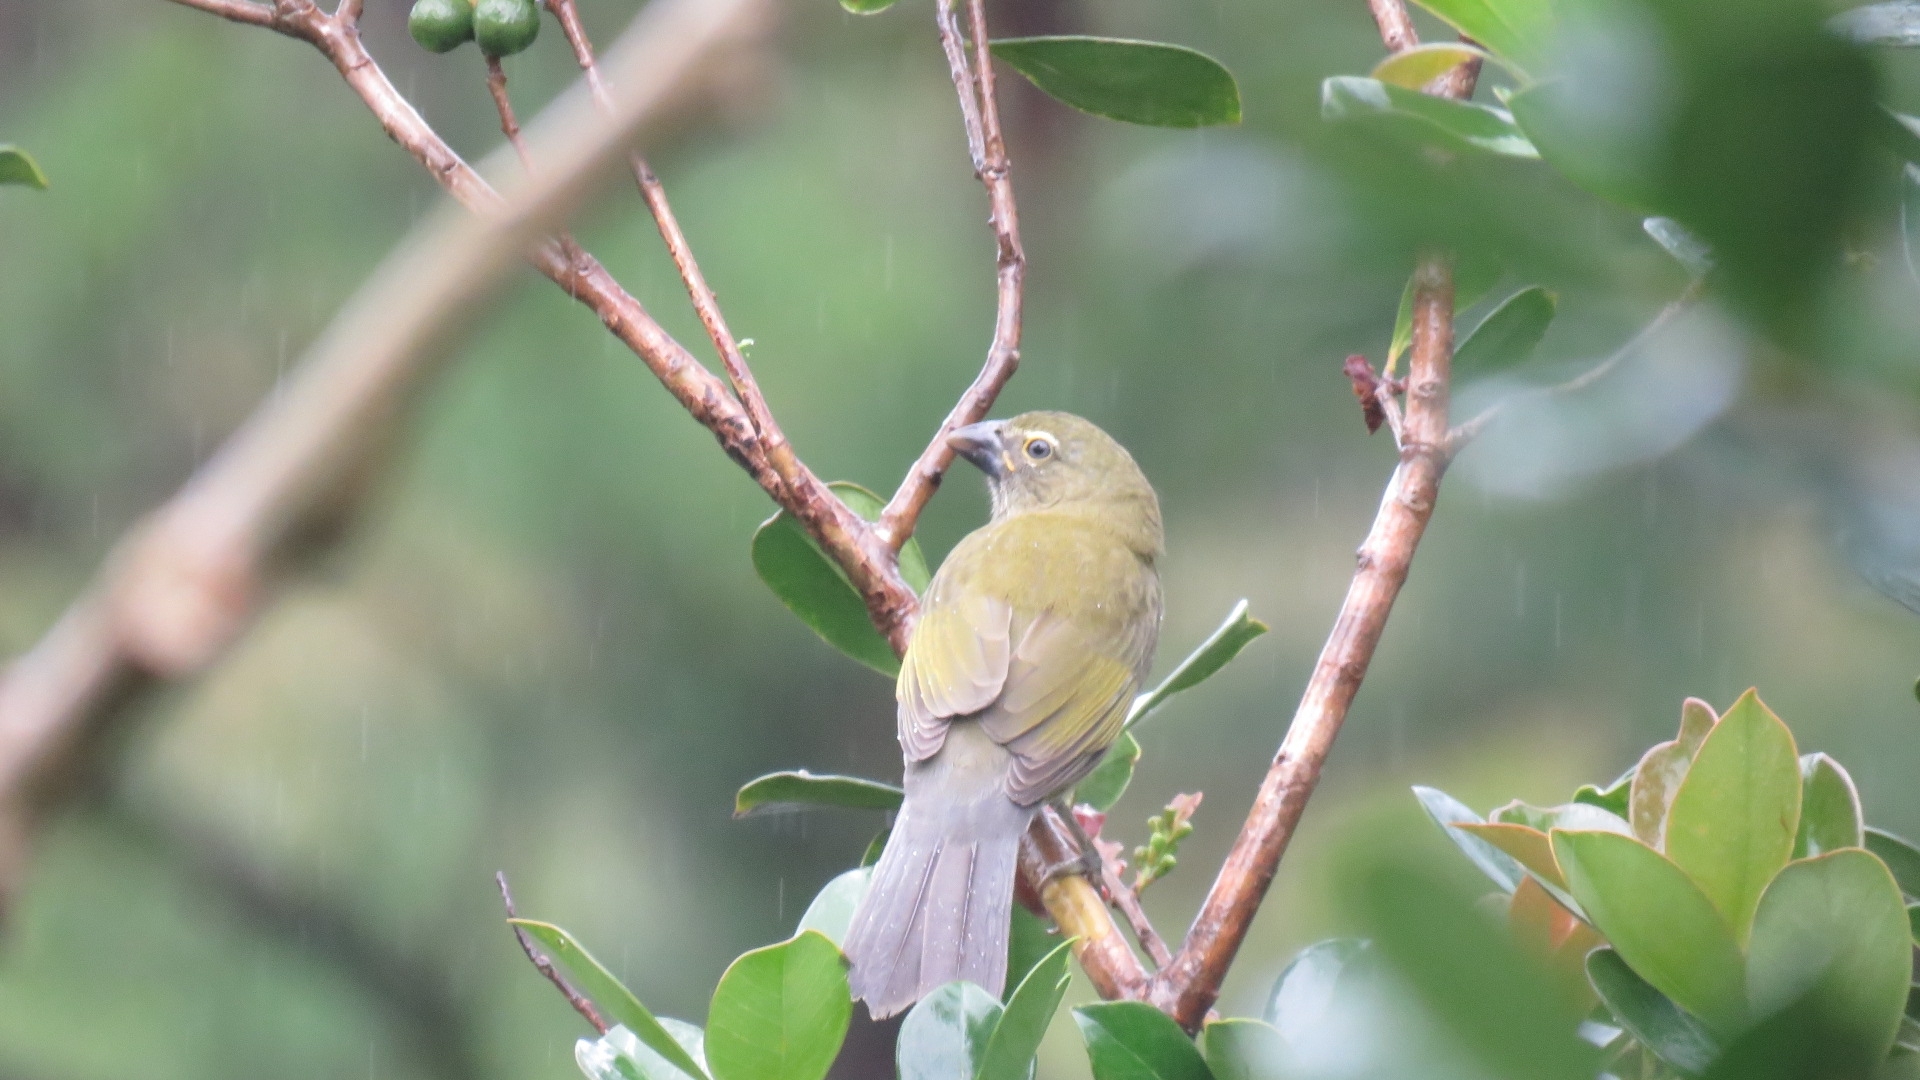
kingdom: Animalia
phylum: Chordata
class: Aves
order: Passeriformes
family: Thraupidae
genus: Saltator
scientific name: Saltator striatipectus
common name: Streaked saltator
